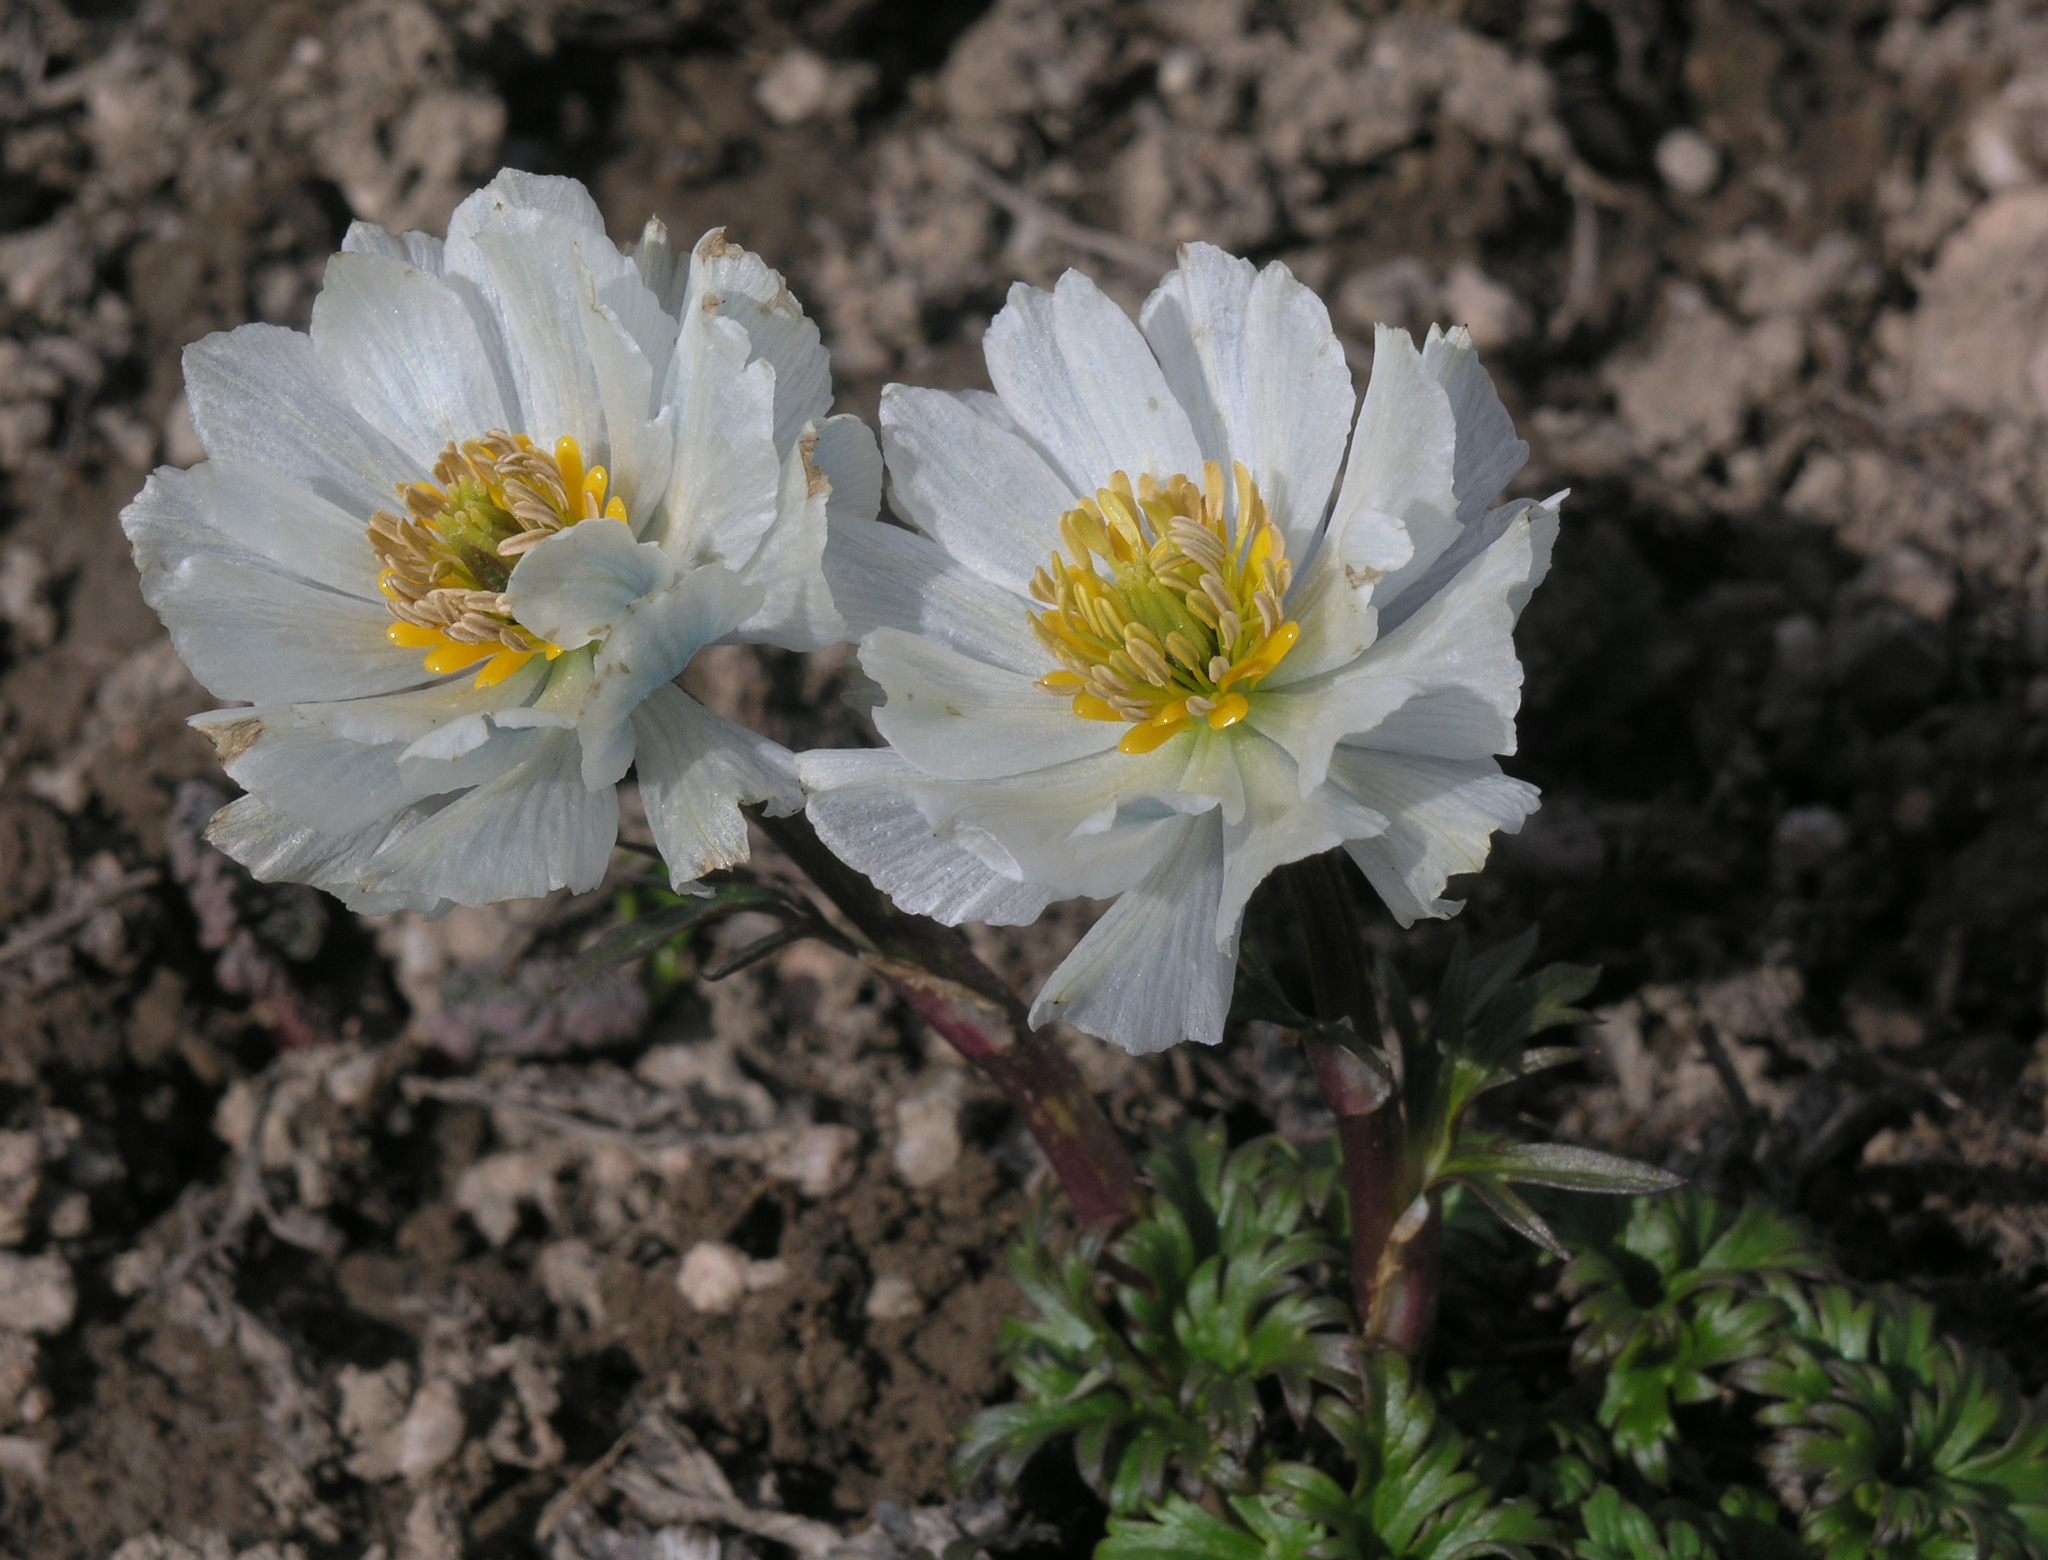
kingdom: Plantae
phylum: Tracheophyta
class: Magnoliopsida
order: Ranunculales
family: Ranunculaceae
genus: Trollius
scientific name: Trollius lilacinus
